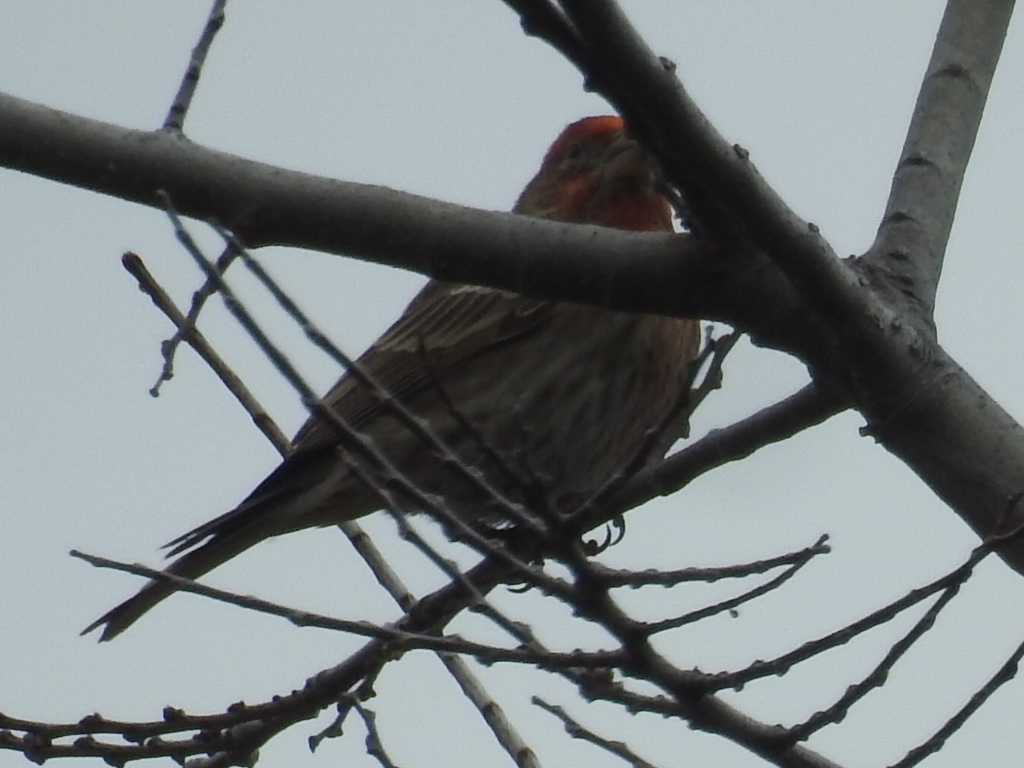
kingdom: Animalia
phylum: Chordata
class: Aves
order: Passeriformes
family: Fringillidae
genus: Haemorhous
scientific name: Haemorhous mexicanus
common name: House finch
